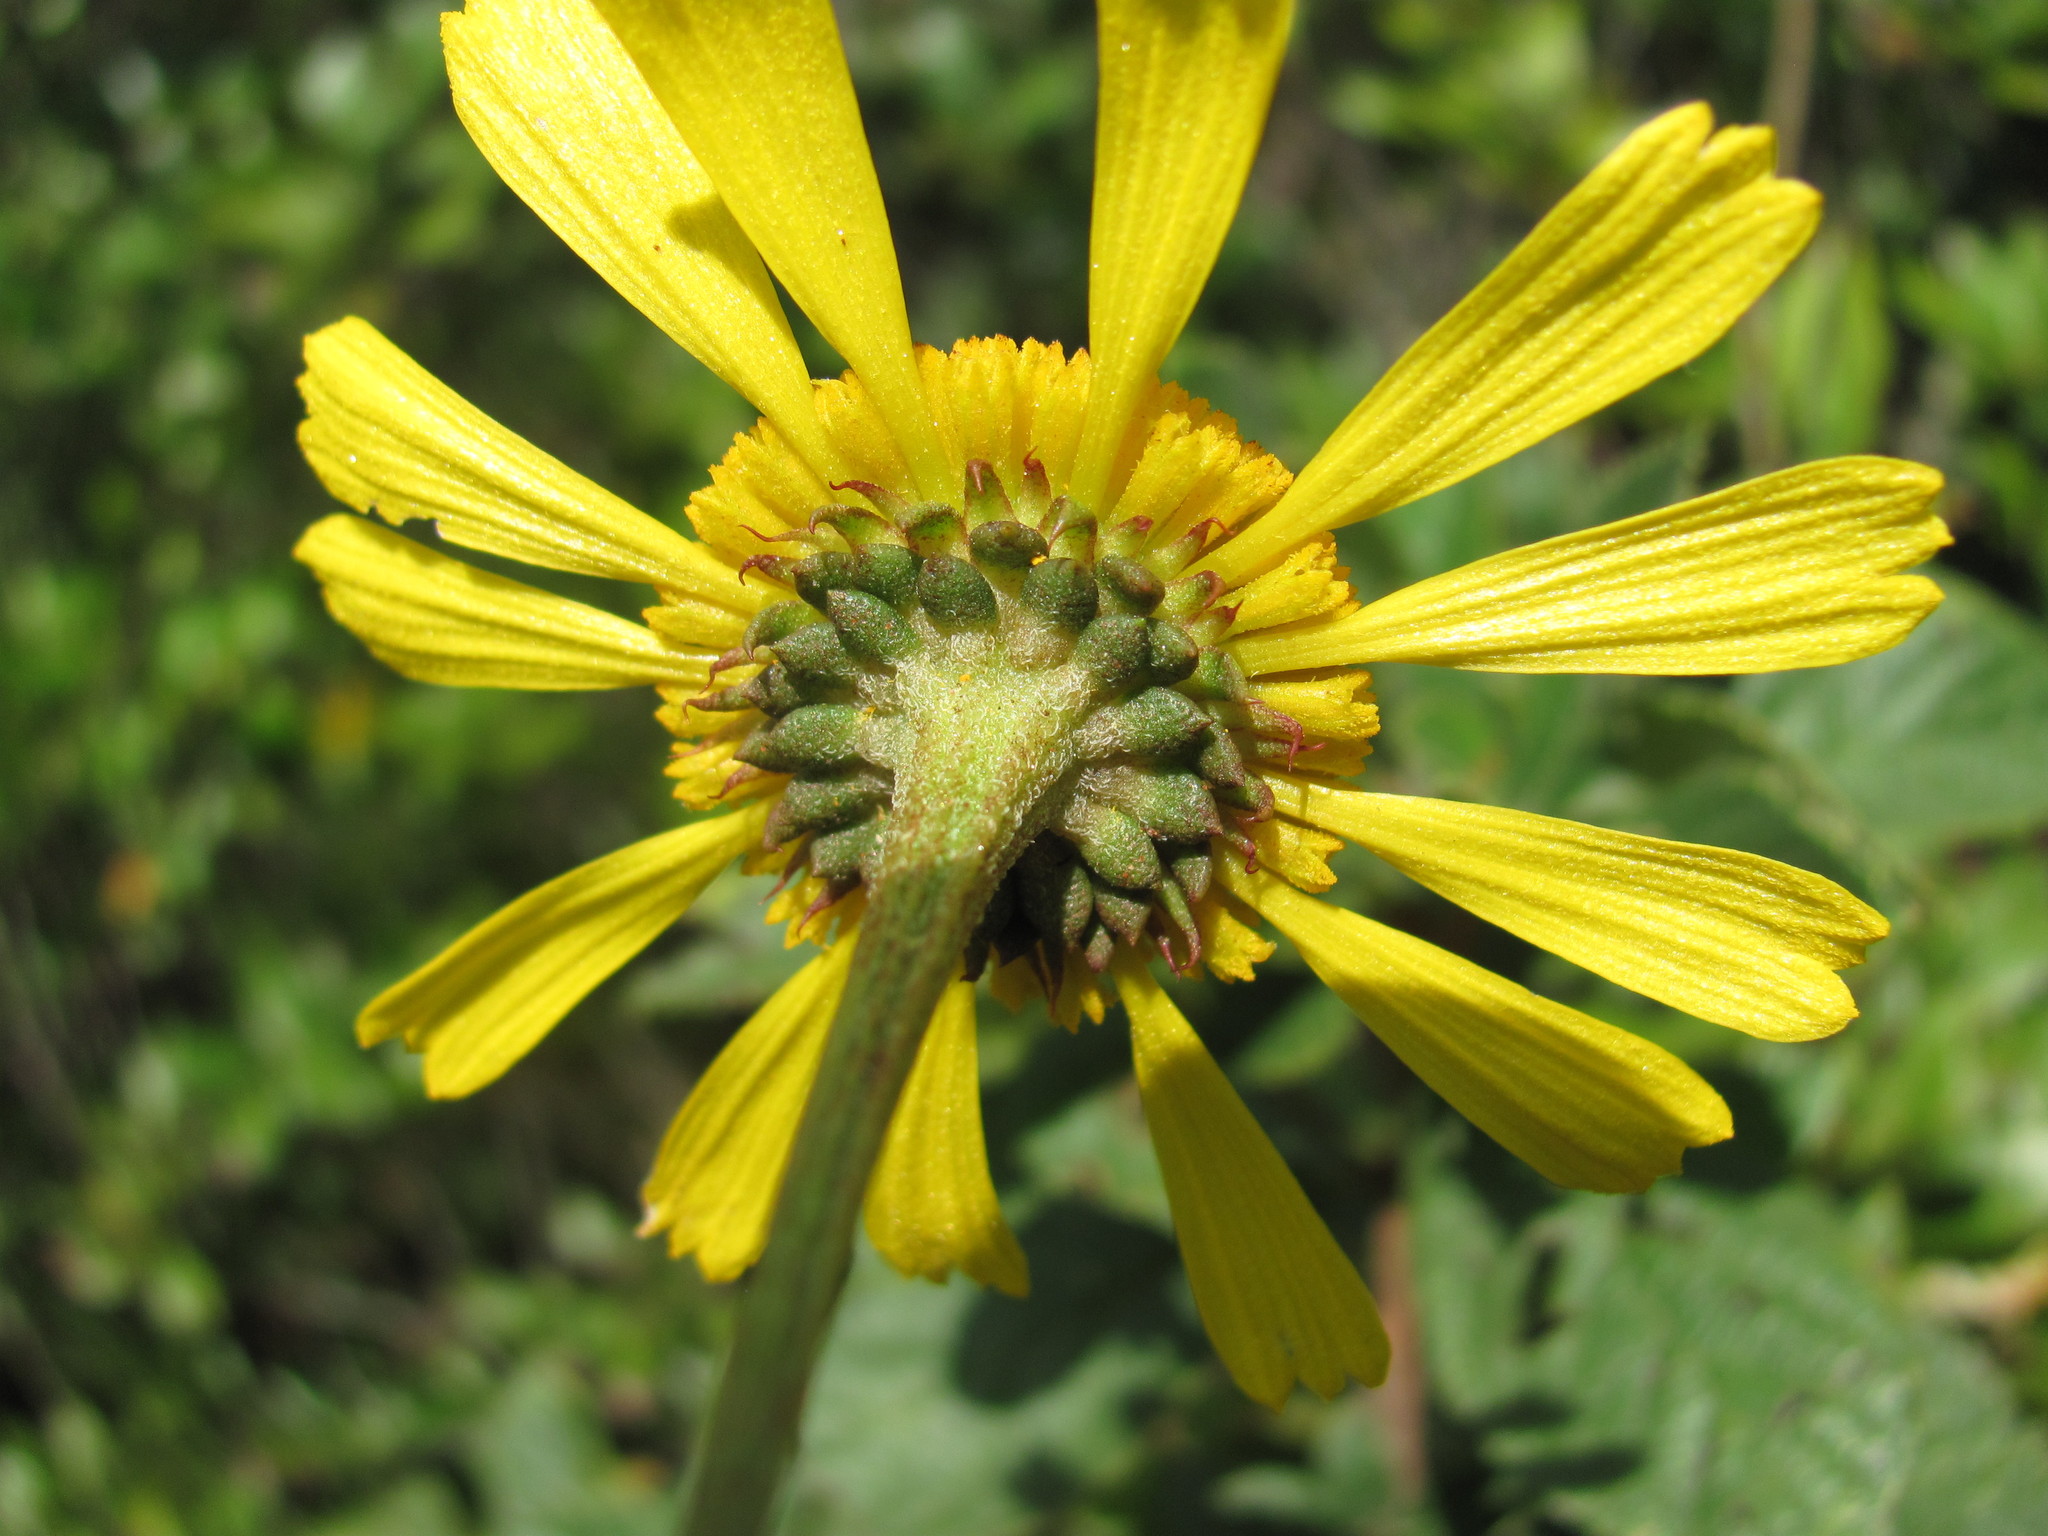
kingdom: Plantae
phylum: Tracheophyta
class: Magnoliopsida
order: Asterales
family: Asteraceae
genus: Balduina
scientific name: Balduina uniflora
